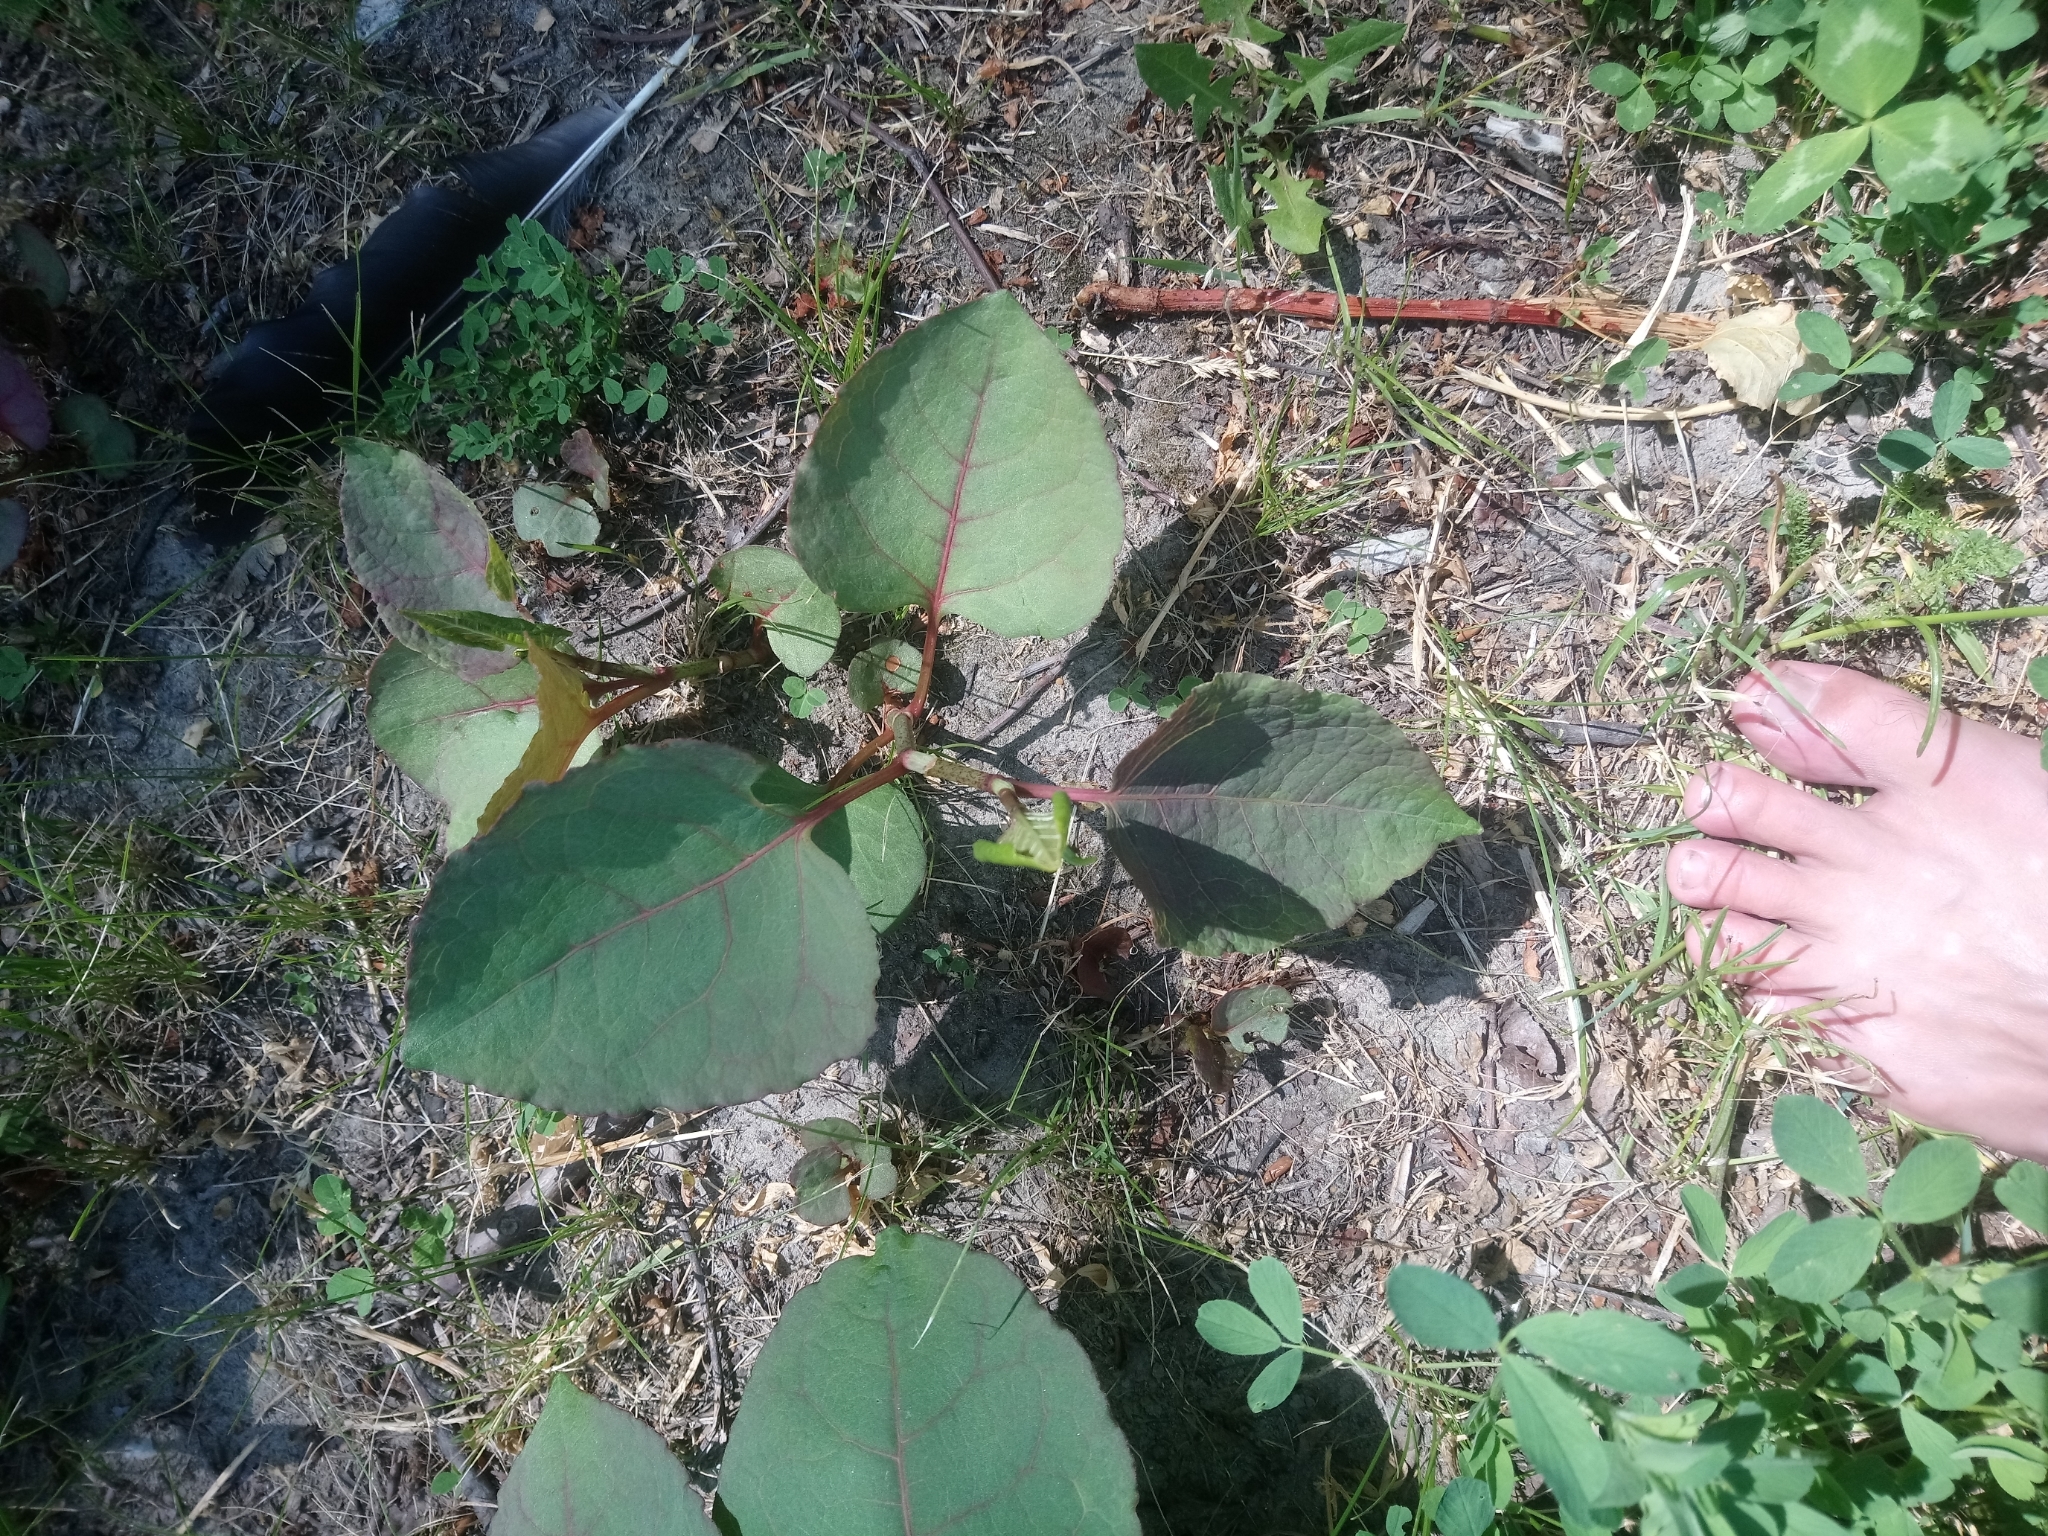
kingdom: Plantae
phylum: Tracheophyta
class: Magnoliopsida
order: Caryophyllales
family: Polygonaceae
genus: Reynoutria
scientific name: Reynoutria
